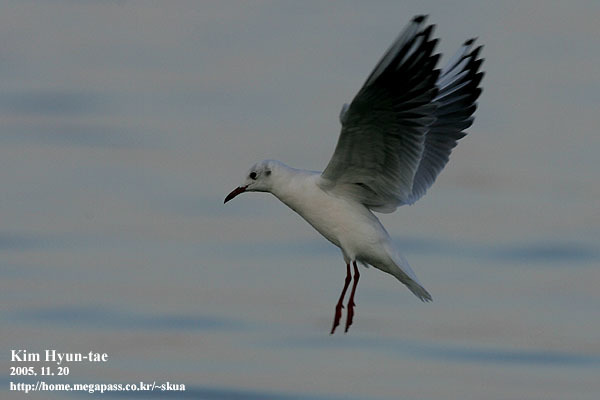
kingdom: Animalia
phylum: Chordata
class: Aves
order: Charadriiformes
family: Laridae
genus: Chroicocephalus
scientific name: Chroicocephalus ridibundus
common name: Black-headed gull
